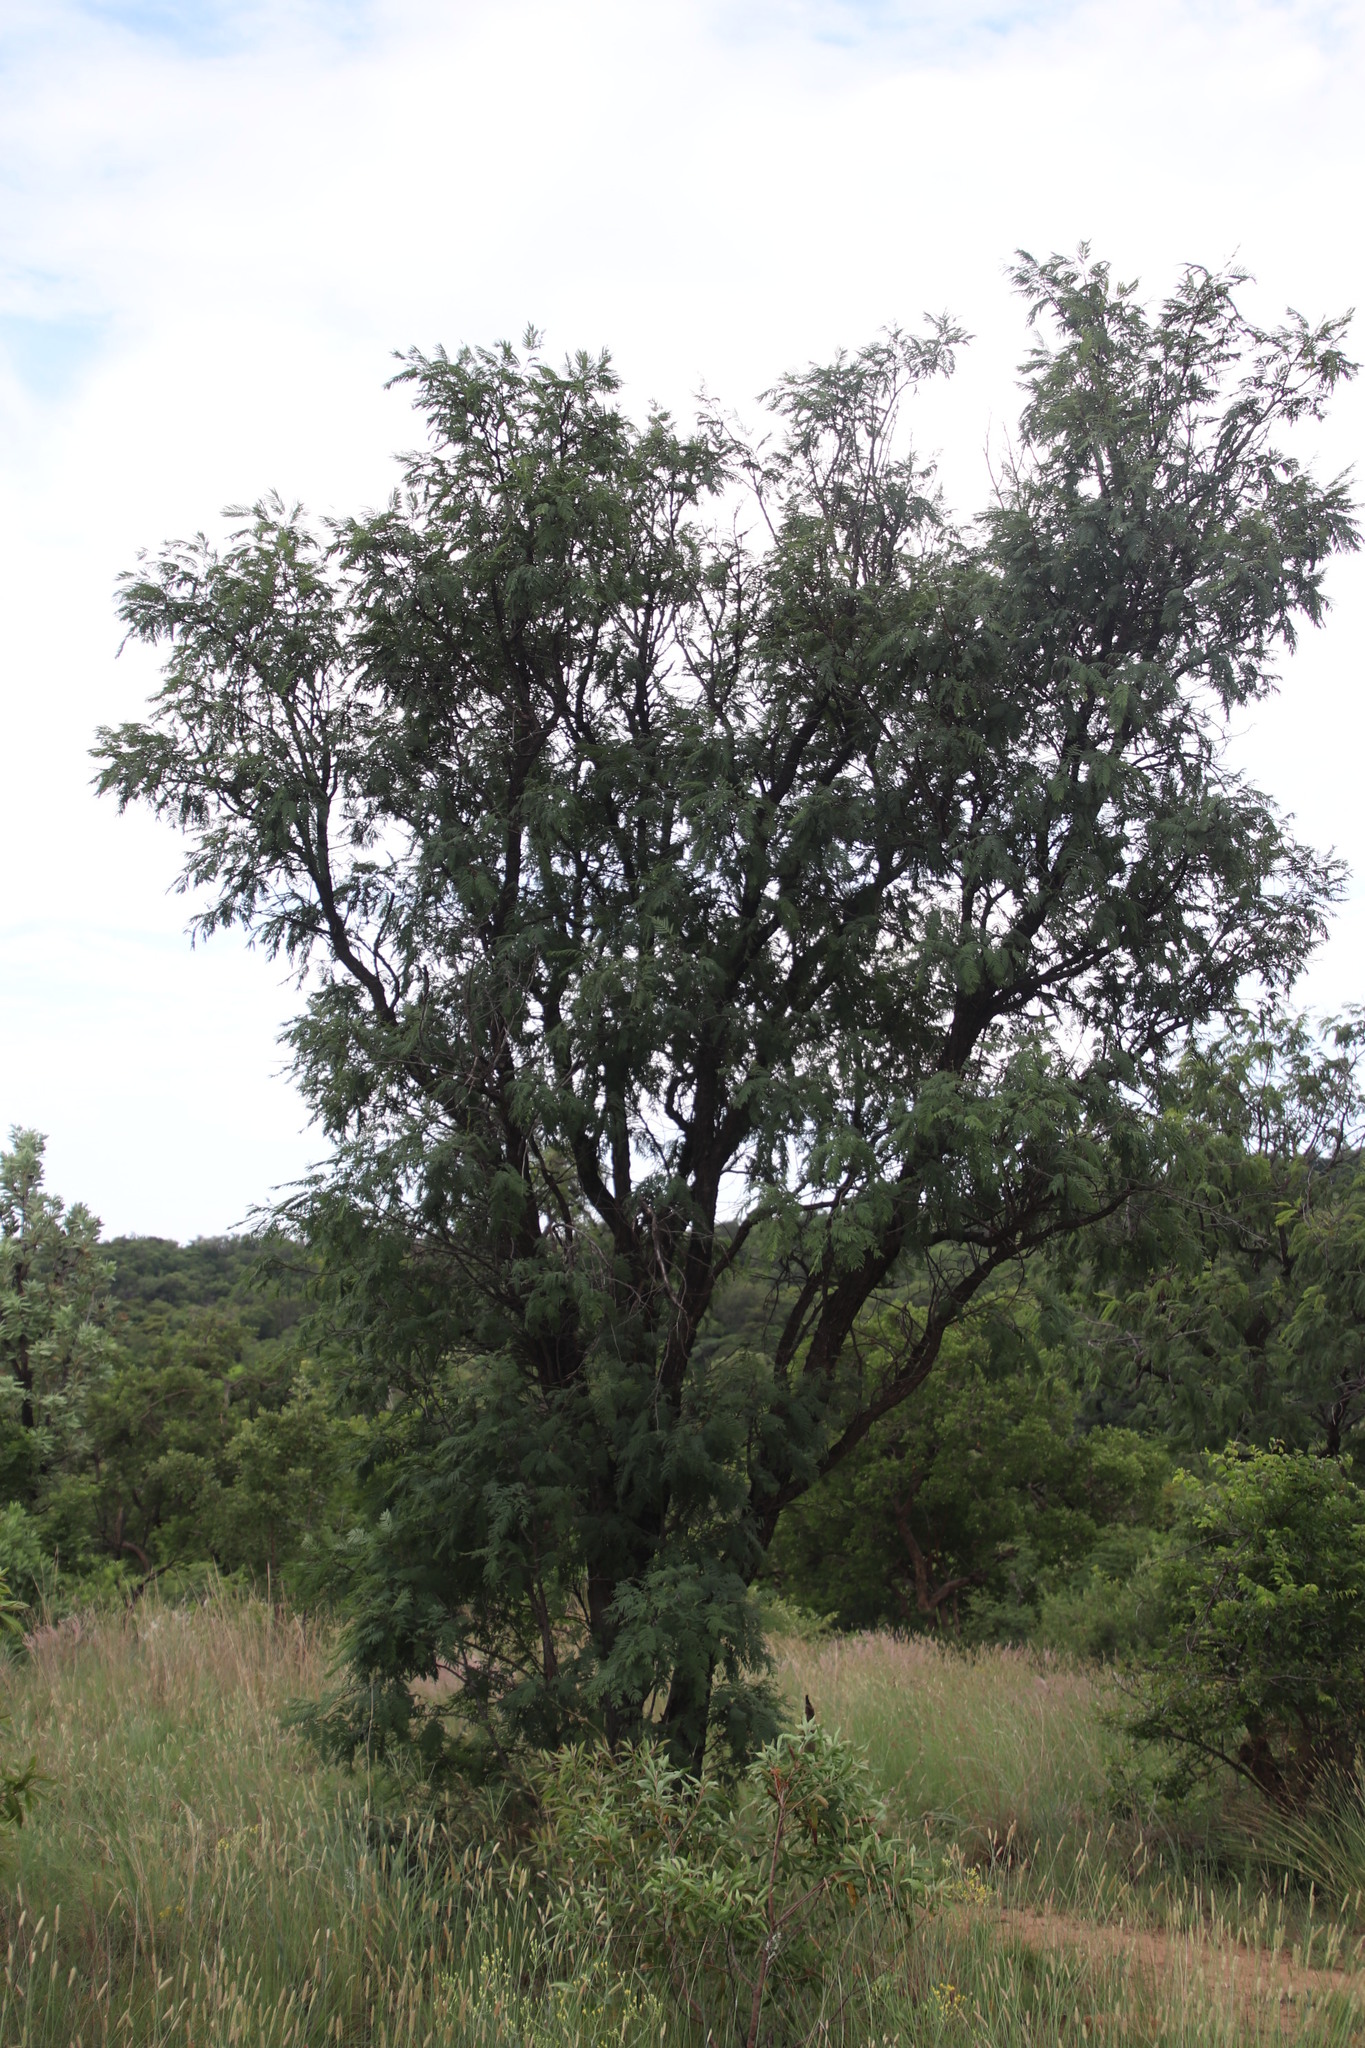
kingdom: Plantae
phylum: Tracheophyta
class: Magnoliopsida
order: Fabales
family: Fabaceae
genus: Senegalia
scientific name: Senegalia caffra
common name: Cat thorn
